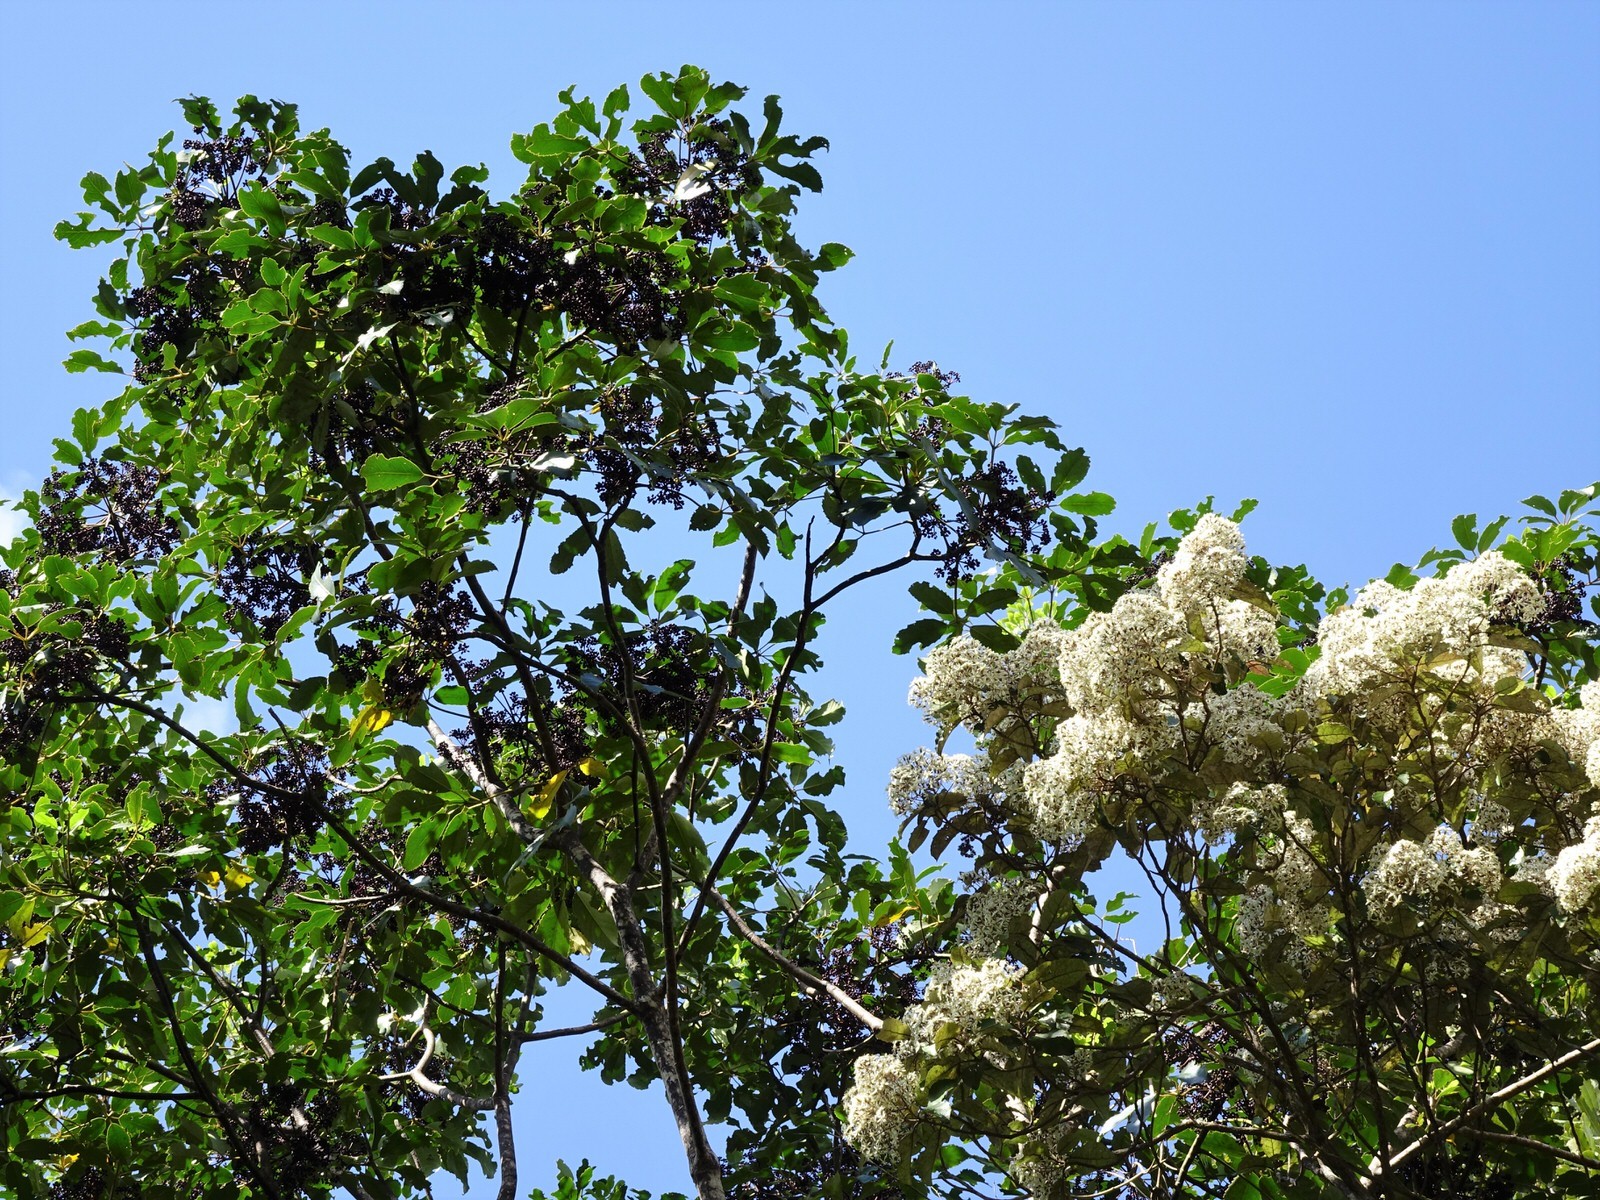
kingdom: Plantae
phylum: Tracheophyta
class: Magnoliopsida
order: Apiales
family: Araliaceae
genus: Neopanax
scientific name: Neopanax arboreus
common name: Five-fingers
